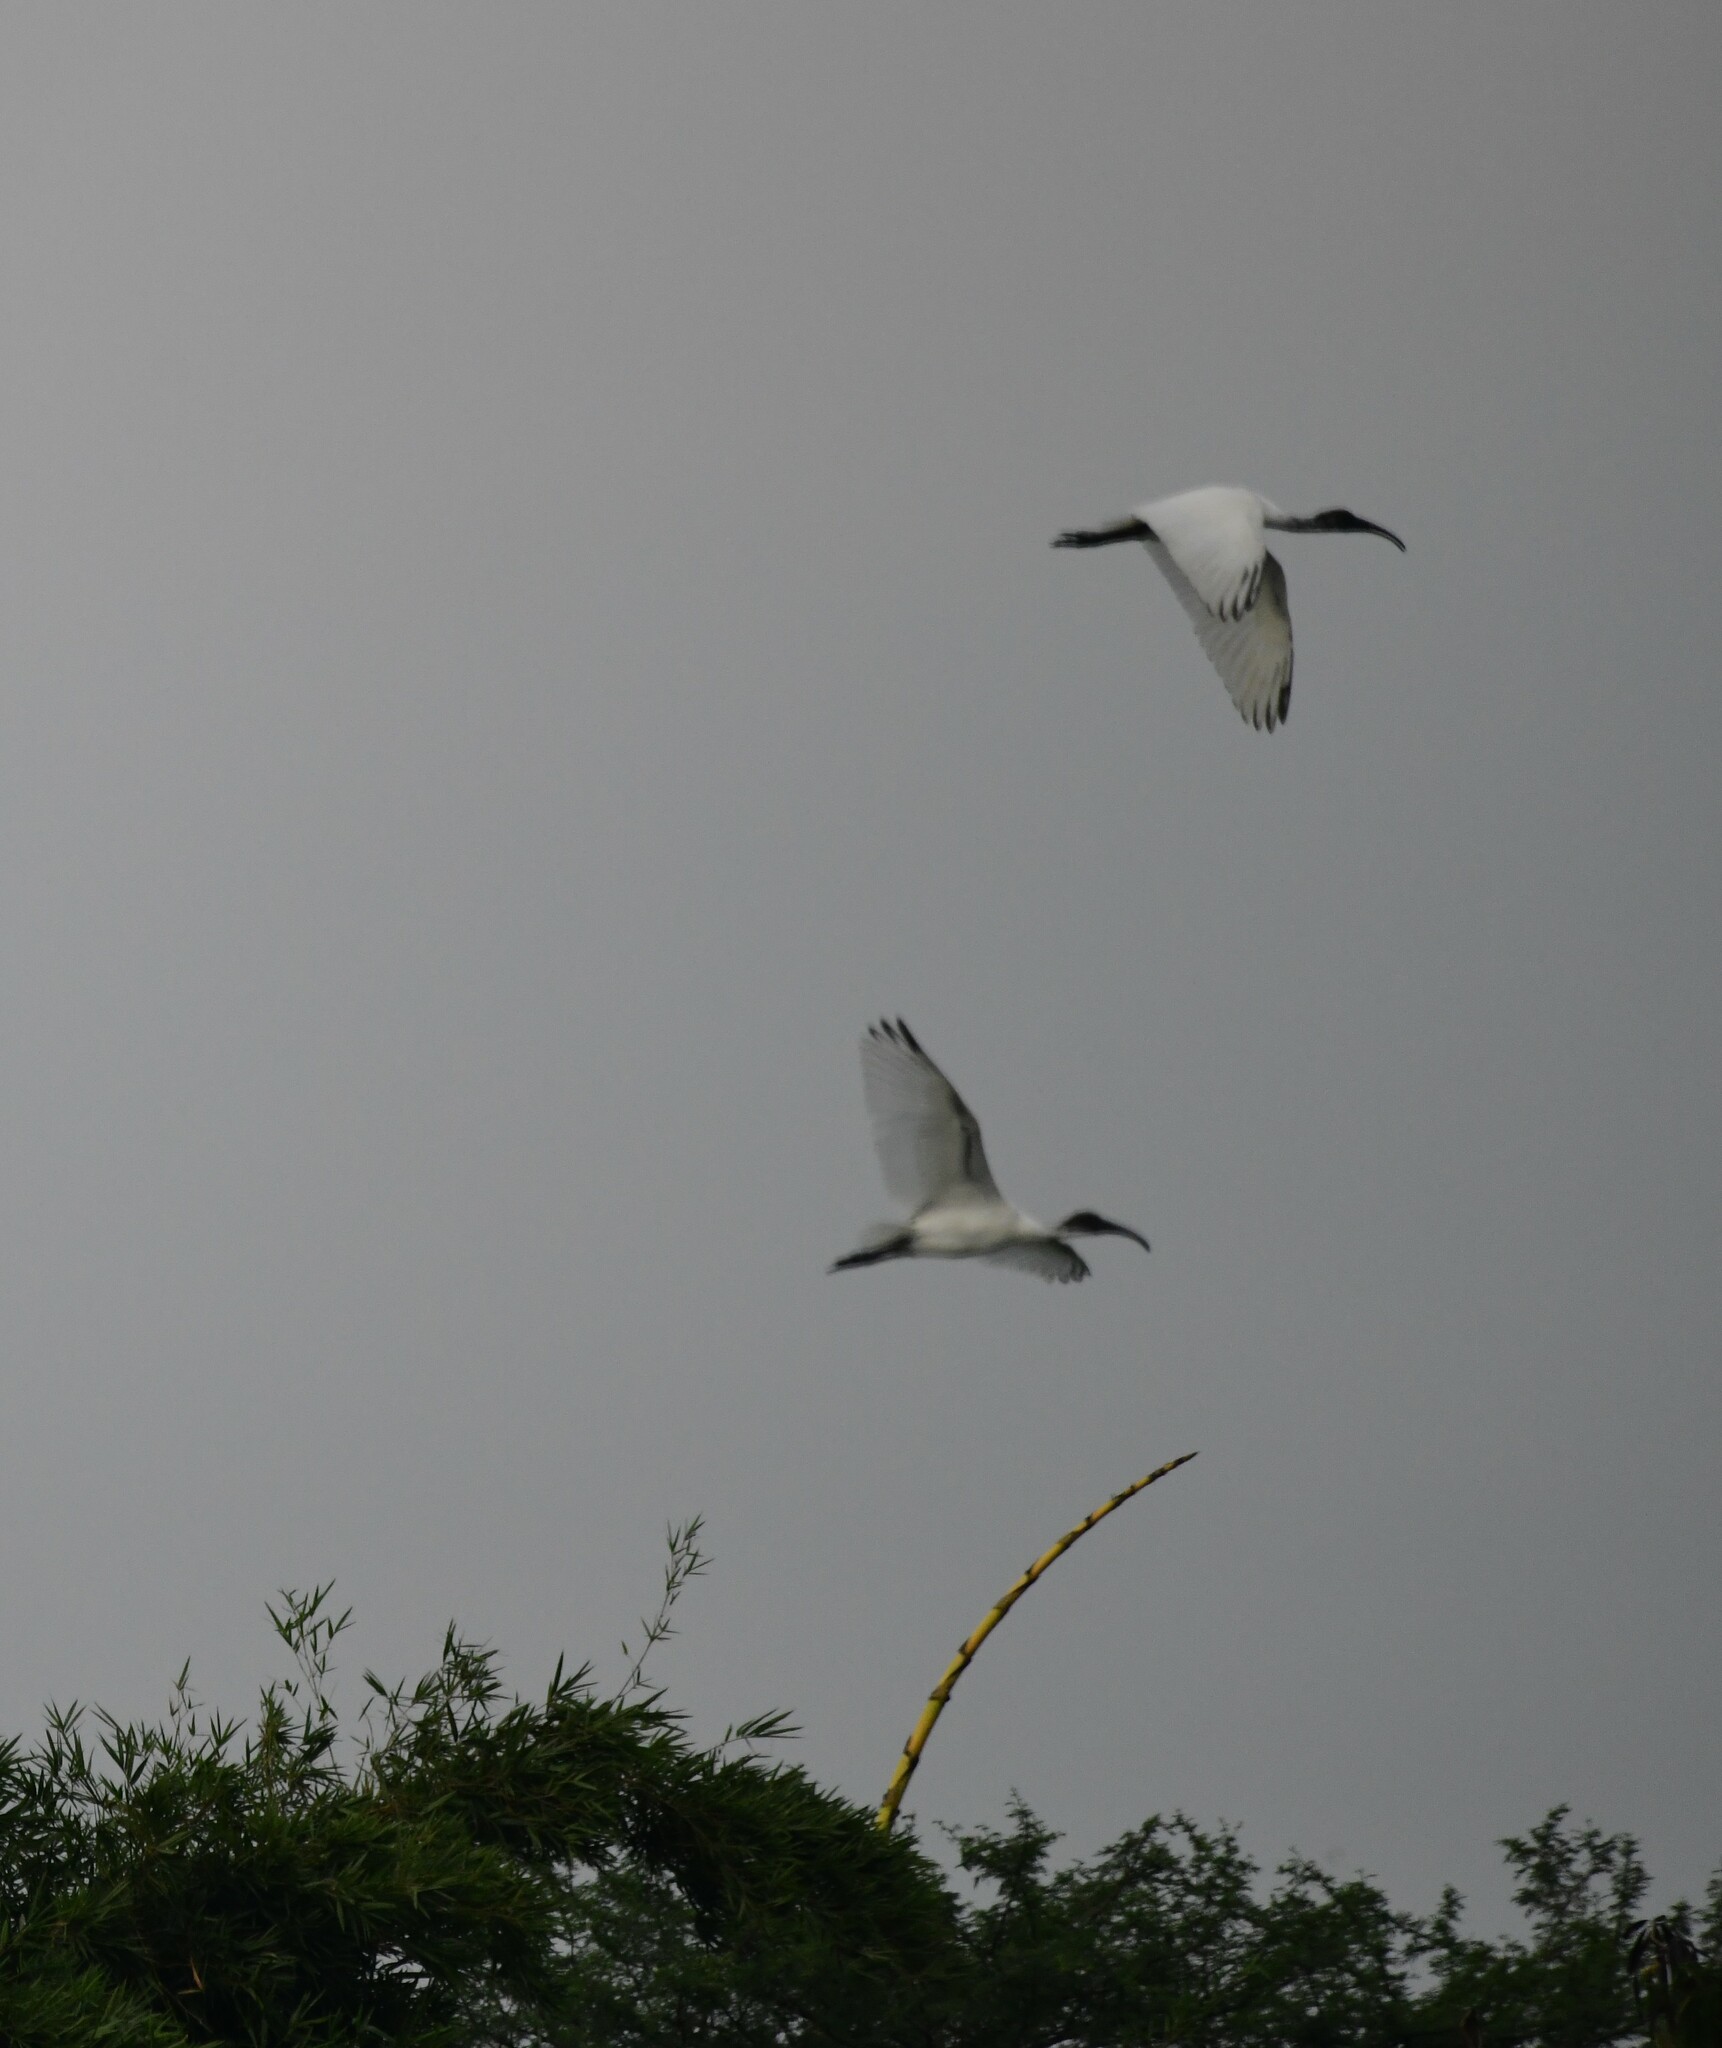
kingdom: Animalia
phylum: Chordata
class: Aves
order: Pelecaniformes
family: Threskiornithidae
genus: Threskiornis
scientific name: Threskiornis melanocephalus
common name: Black-headed ibis
